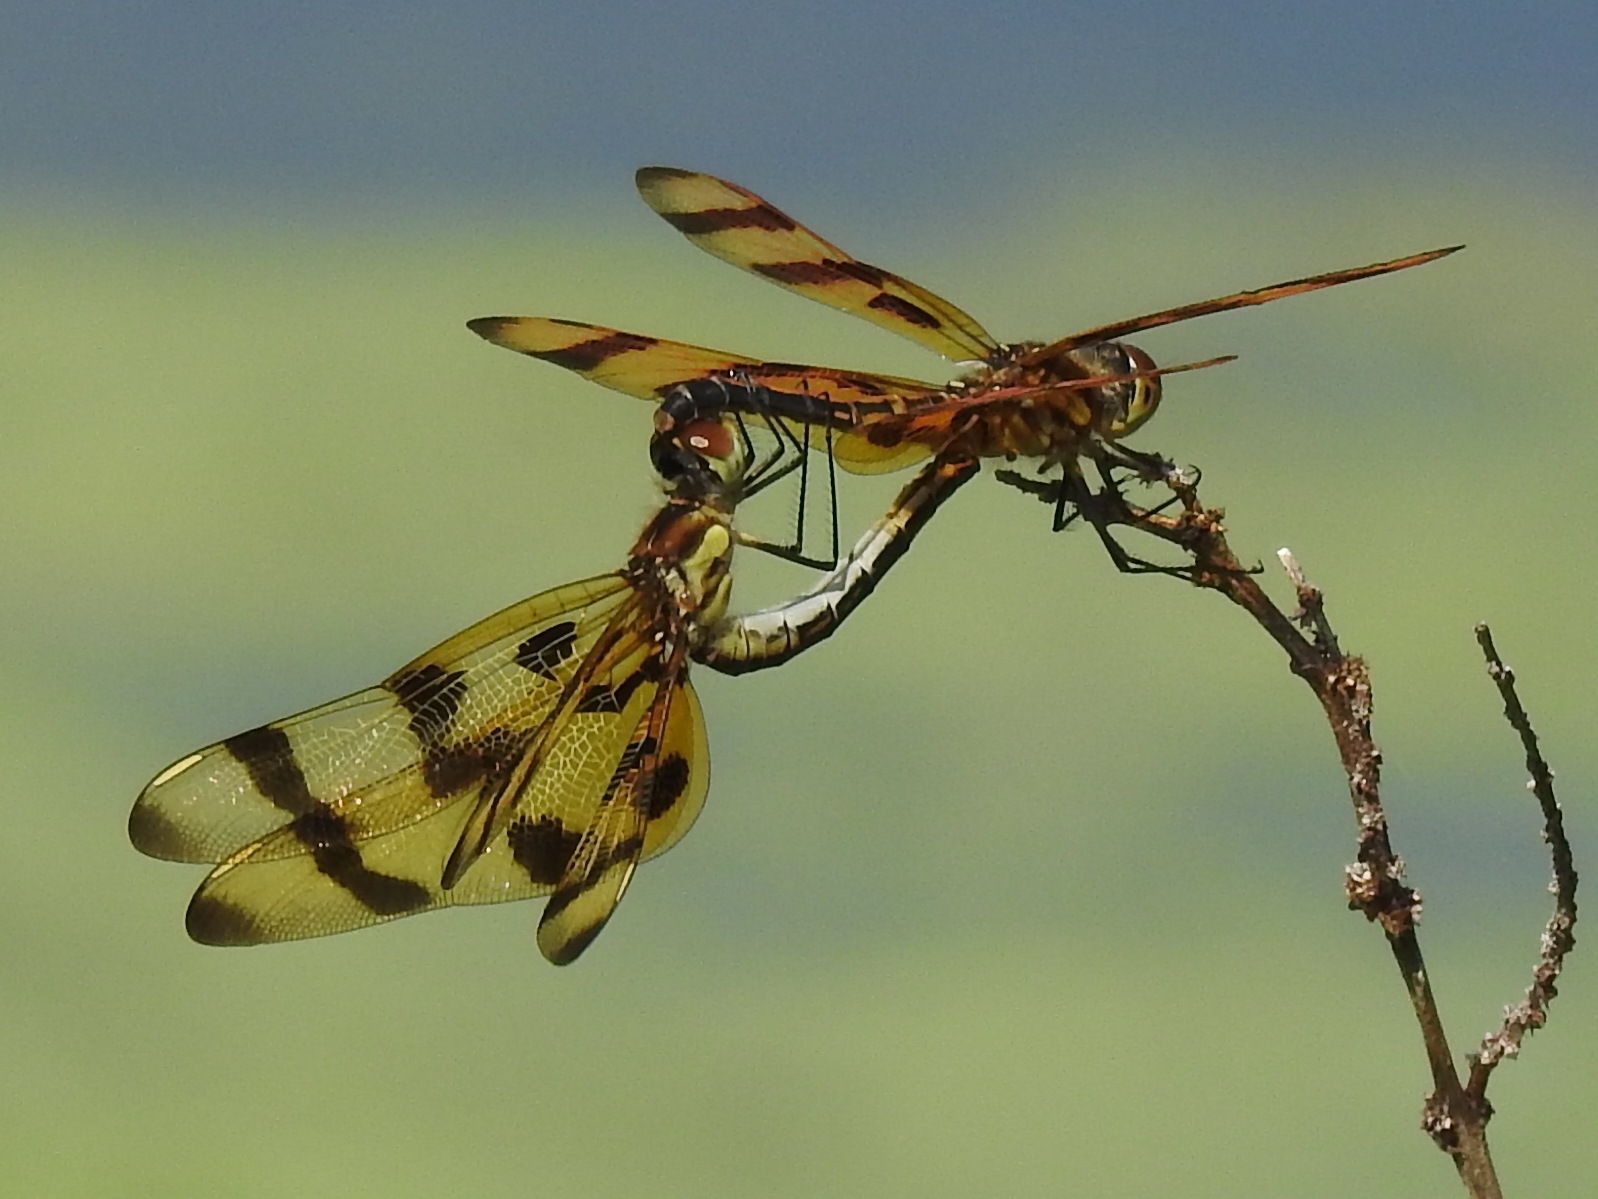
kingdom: Animalia
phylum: Arthropoda
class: Insecta
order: Odonata
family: Libellulidae
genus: Celithemis
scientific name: Celithemis eponina
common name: Halloween pennant
